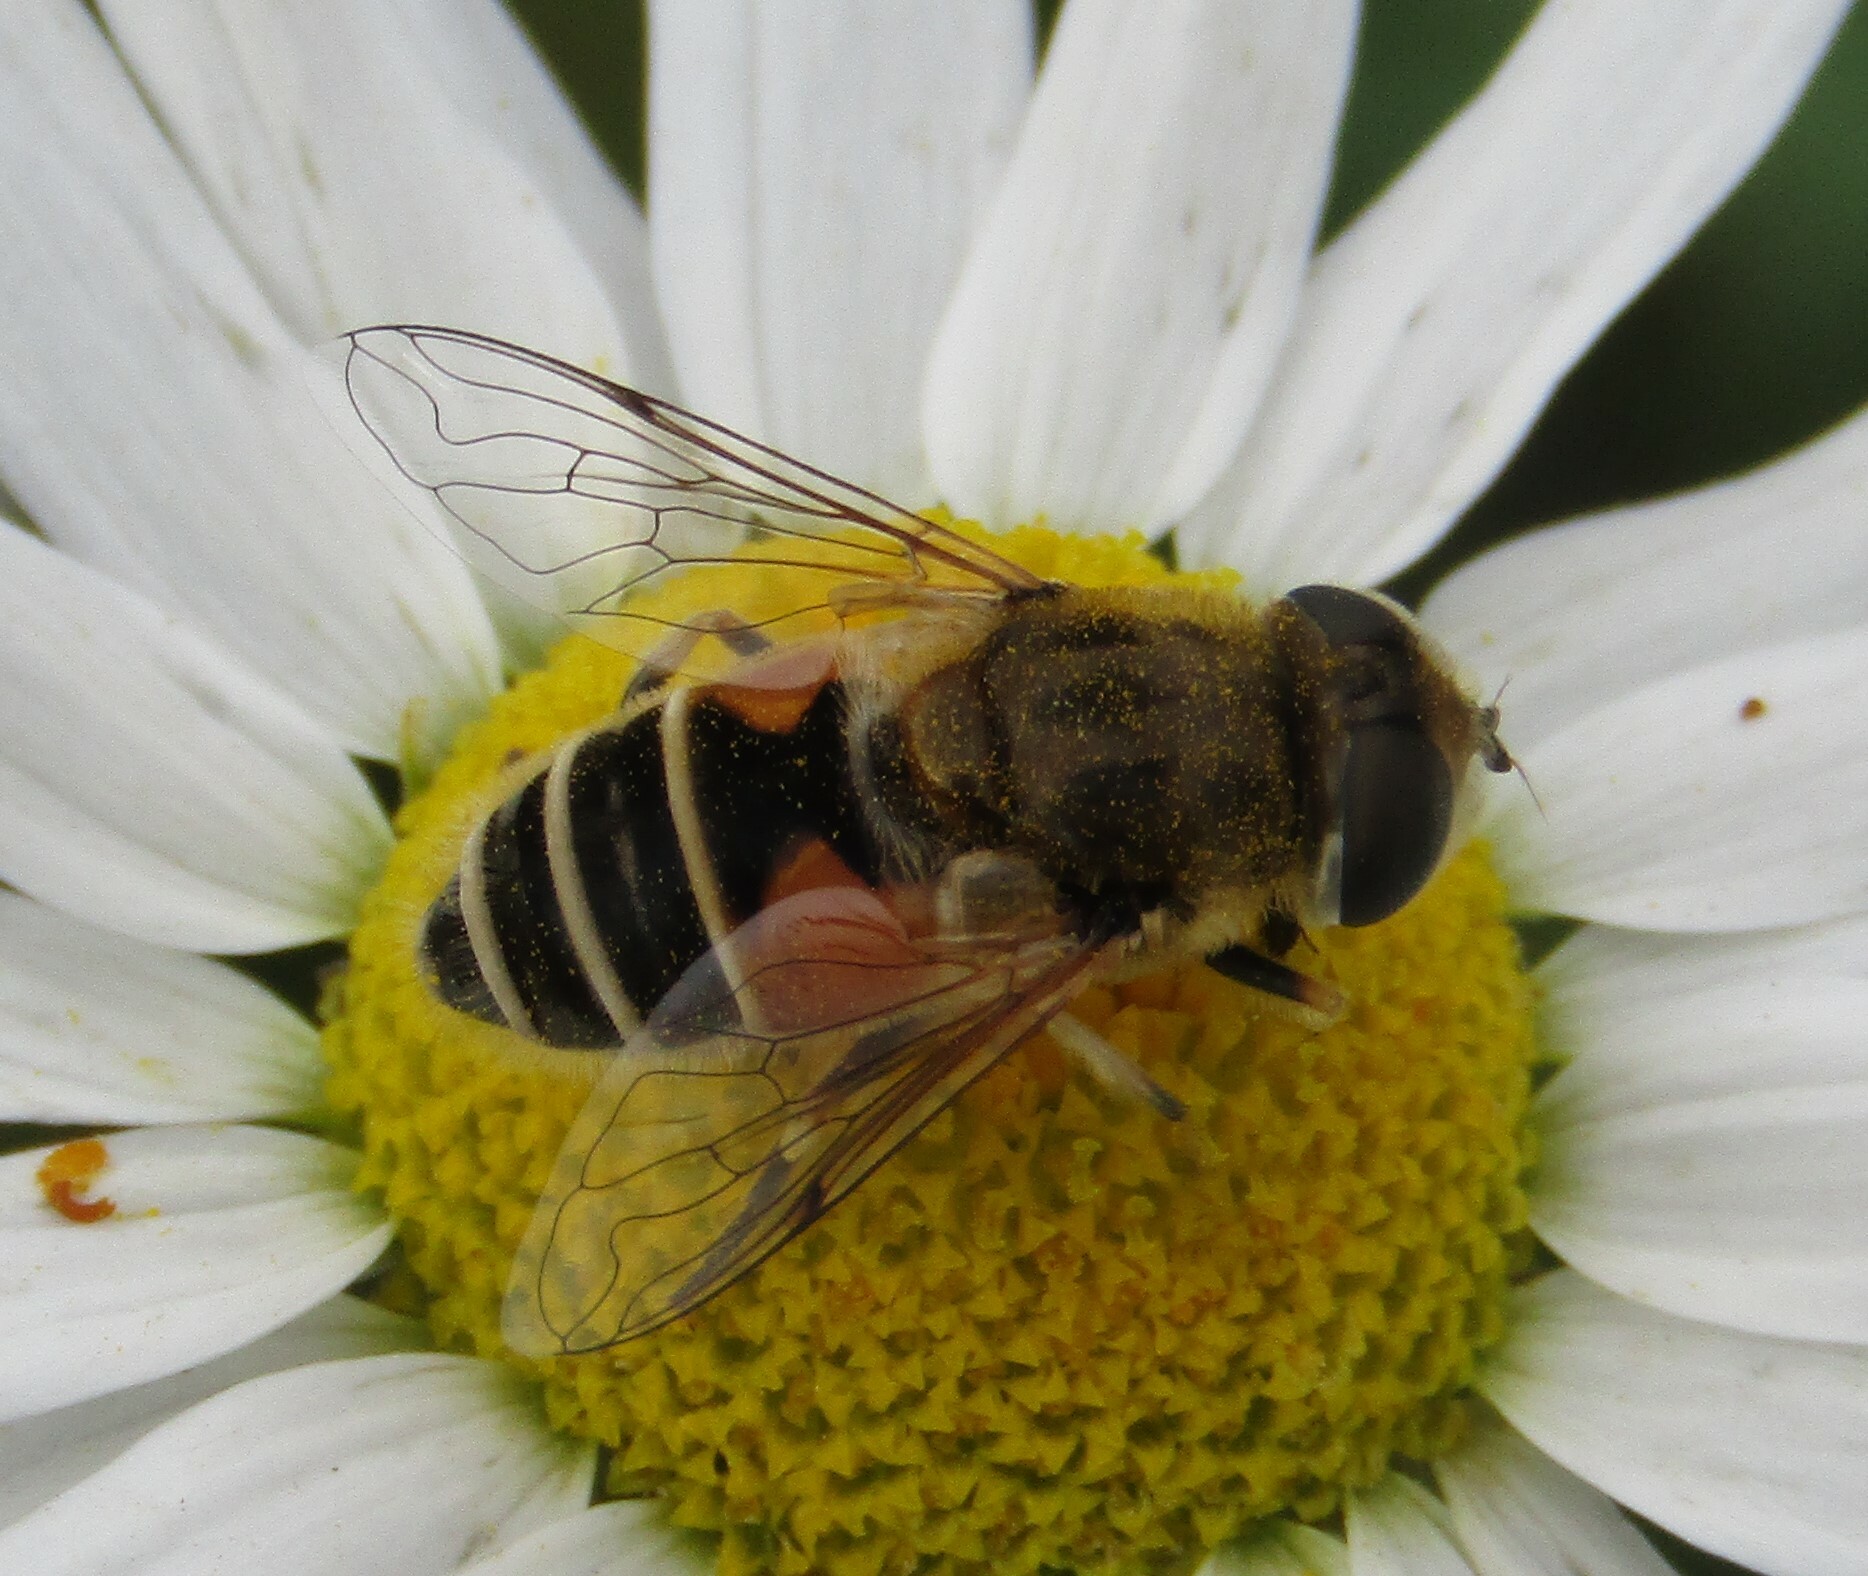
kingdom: Animalia
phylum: Arthropoda
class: Insecta
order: Diptera
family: Syrphidae
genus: Eristalis
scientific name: Eristalis arbustorum
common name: Hover fly
